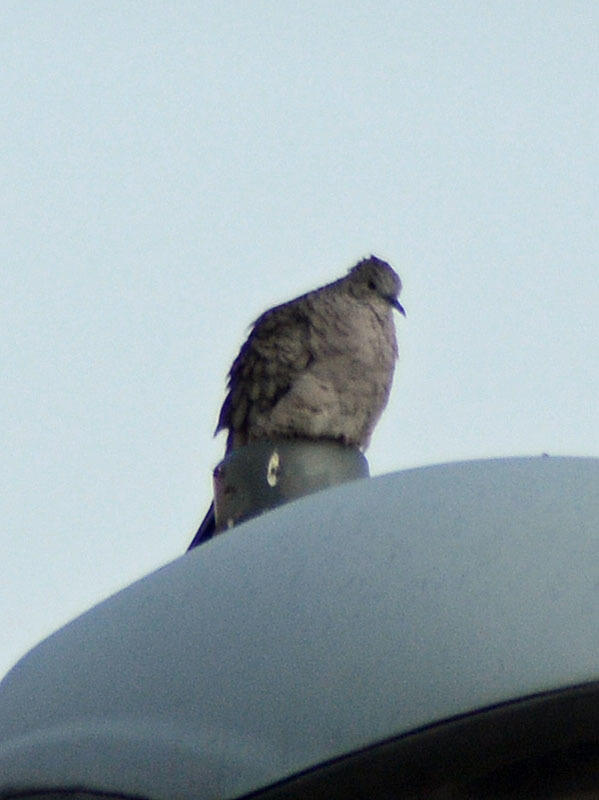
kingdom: Animalia
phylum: Chordata
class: Aves
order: Columbiformes
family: Columbidae
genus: Columbina
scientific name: Columbina inca
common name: Inca dove
